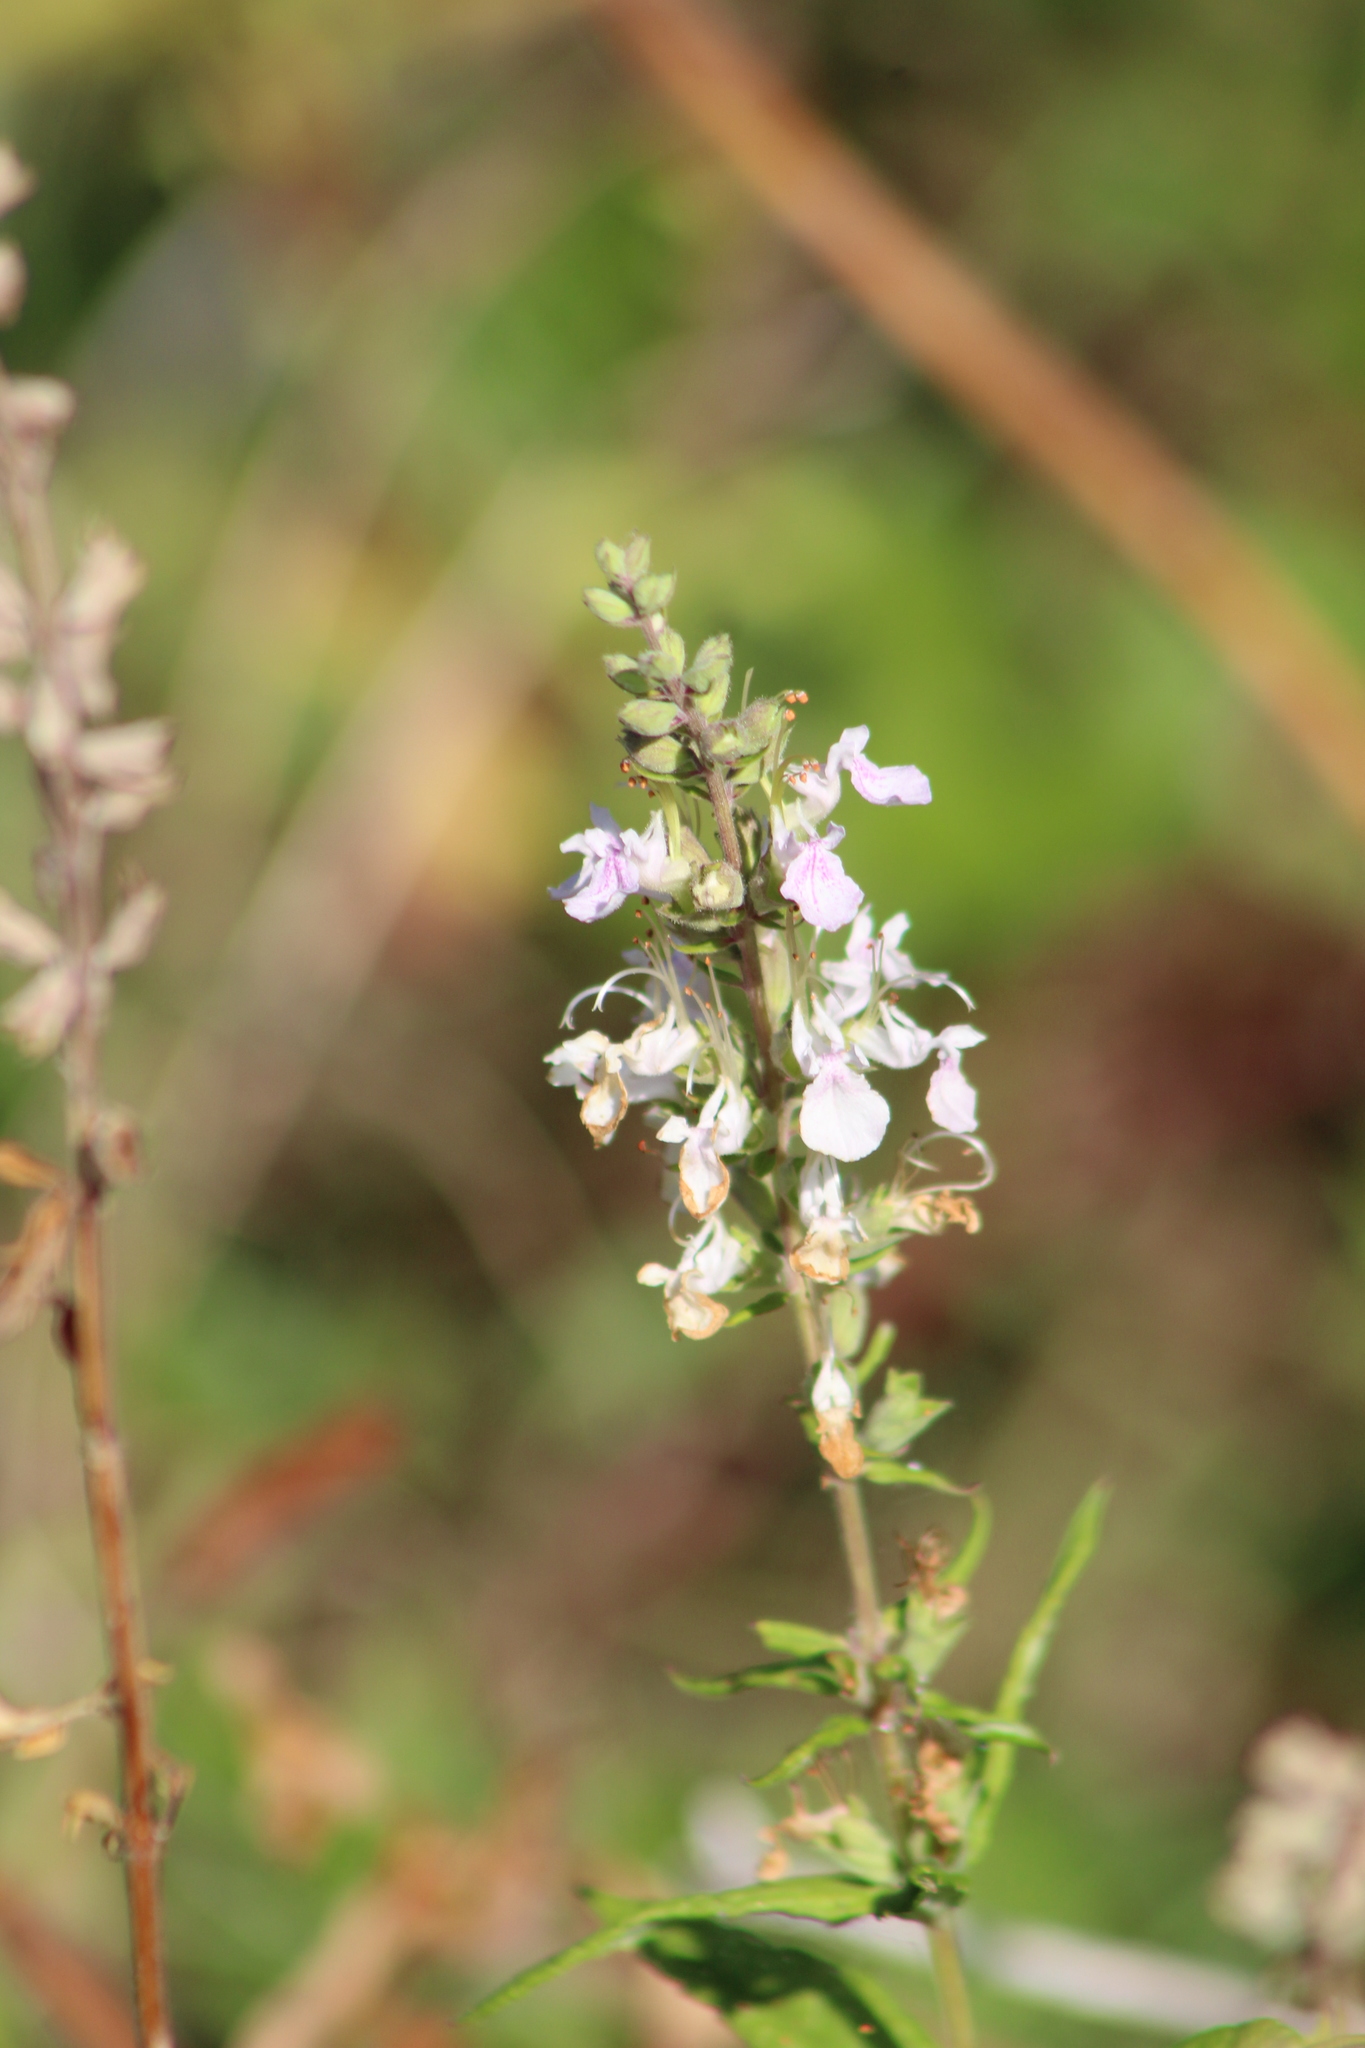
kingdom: Plantae
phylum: Tracheophyta
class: Magnoliopsida
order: Lamiales
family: Lamiaceae
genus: Teucrium
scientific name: Teucrium canadense
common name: American germander
